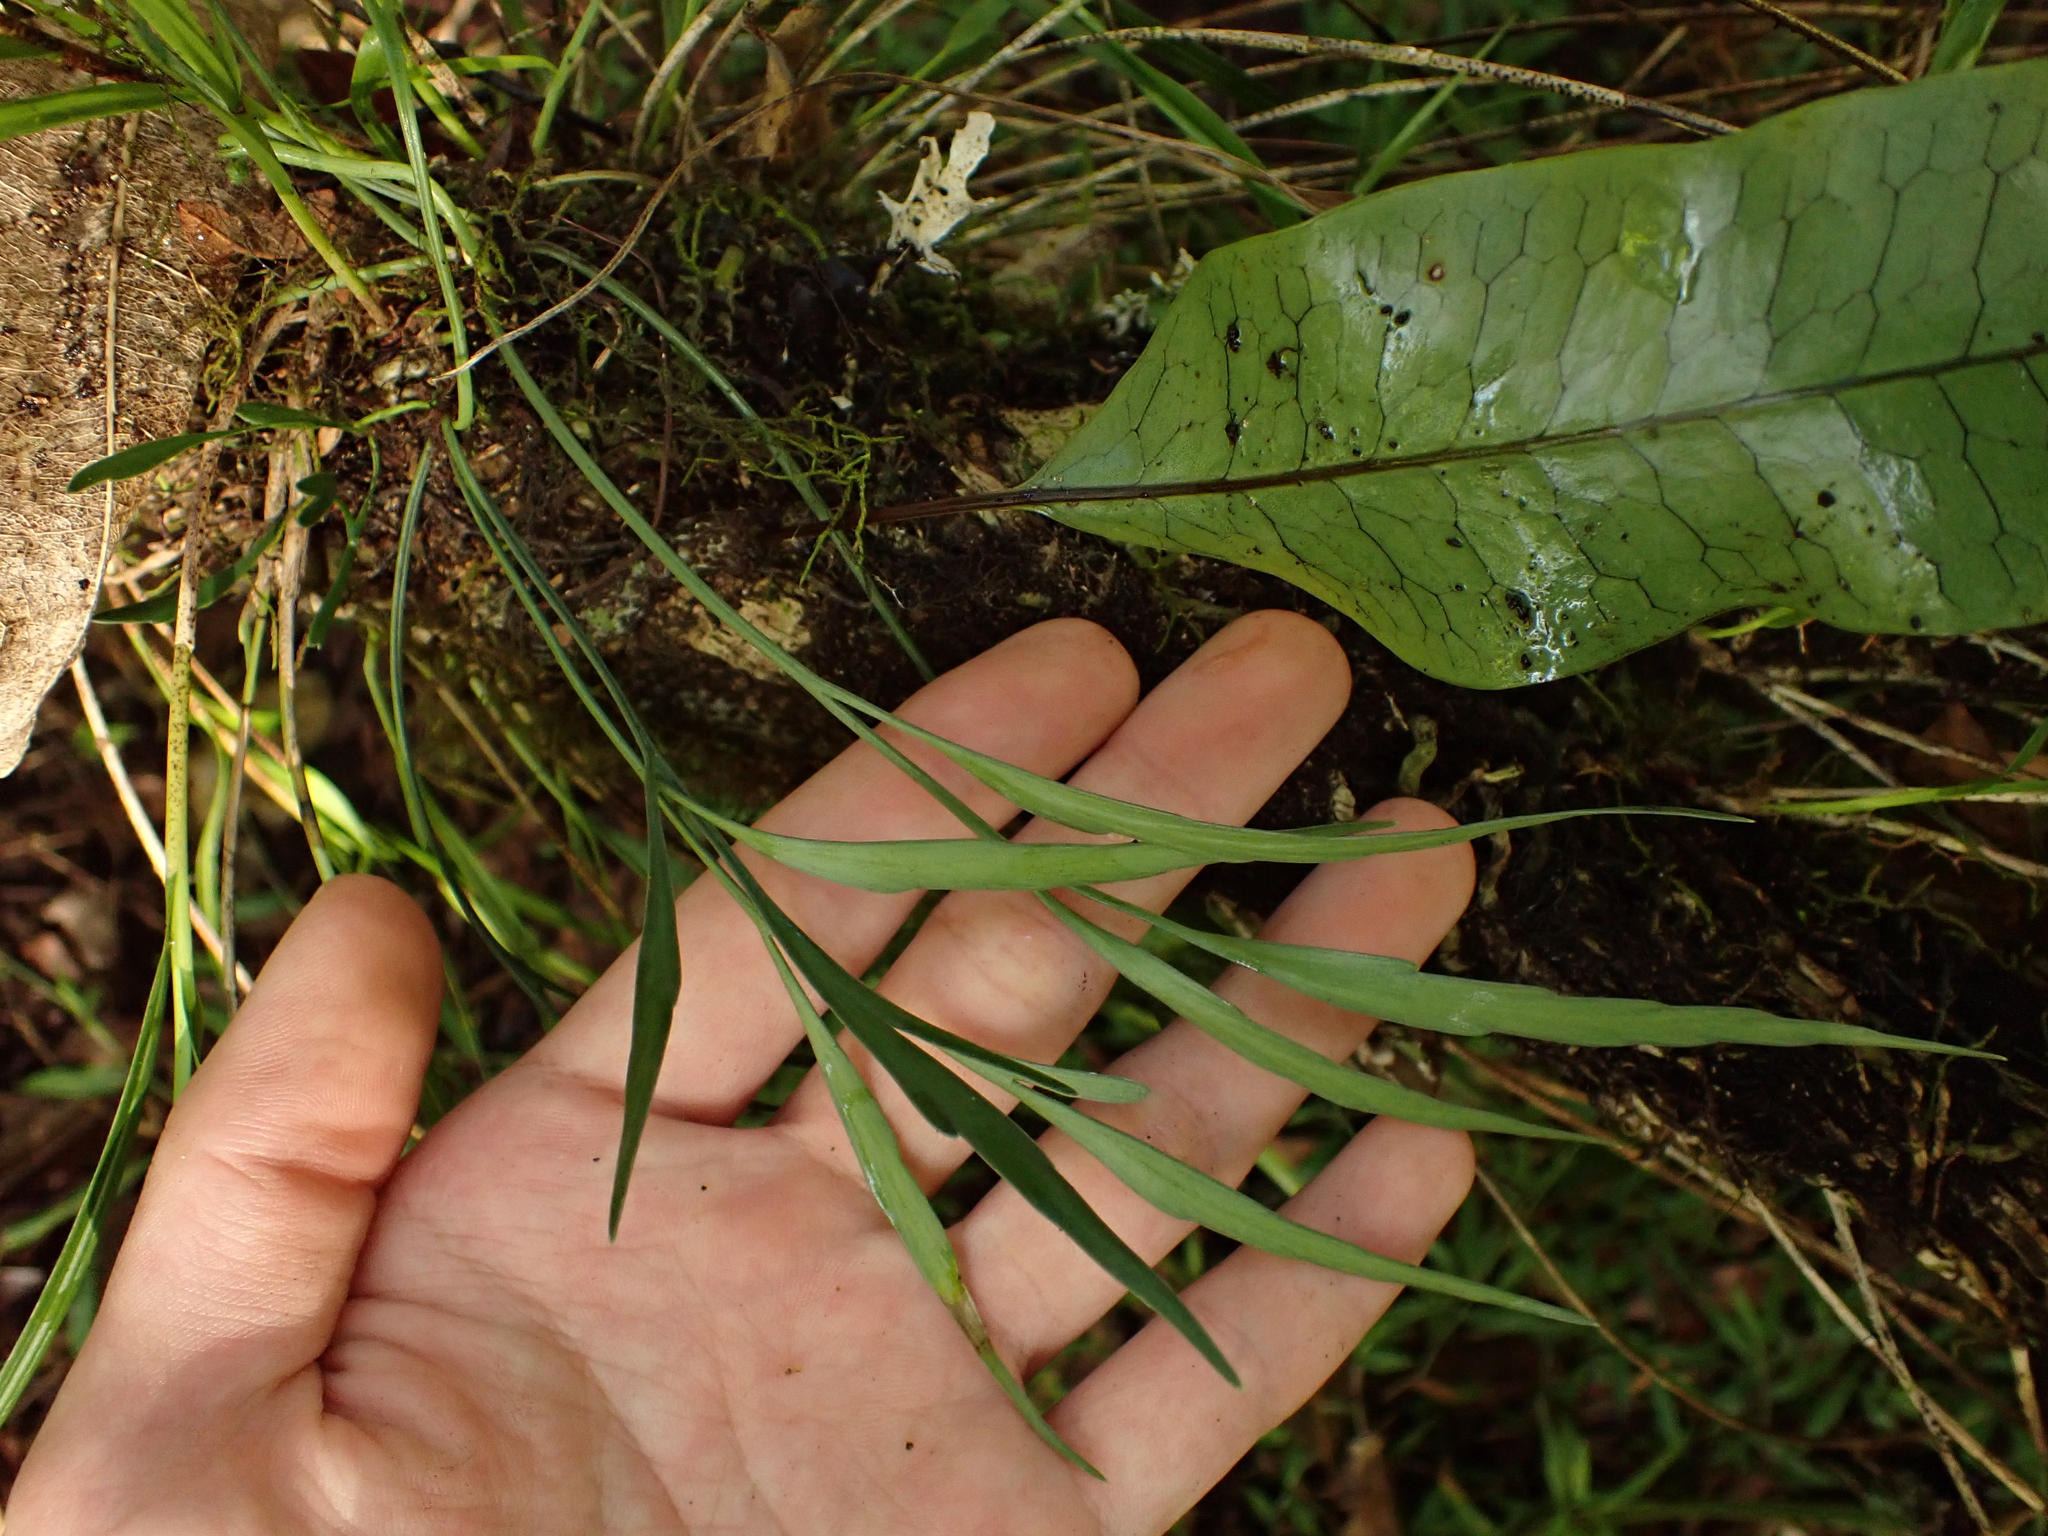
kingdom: Plantae
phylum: Tracheophyta
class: Polypodiopsida
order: Polypodiales
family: Aspleniaceae
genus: Asplenium
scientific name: Asplenium flaccidum
